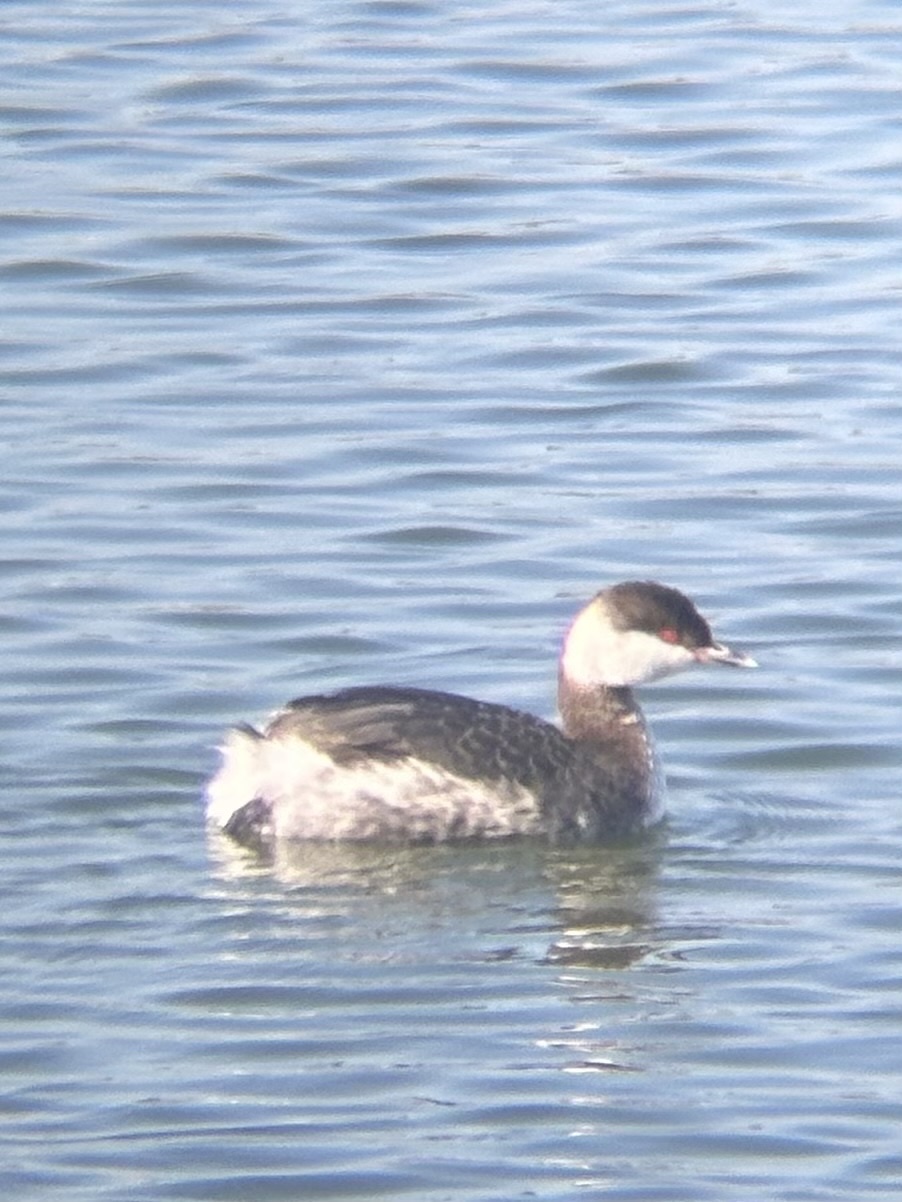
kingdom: Animalia
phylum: Chordata
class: Aves
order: Podicipediformes
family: Podicipedidae
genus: Podiceps
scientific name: Podiceps auritus
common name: Horned grebe
